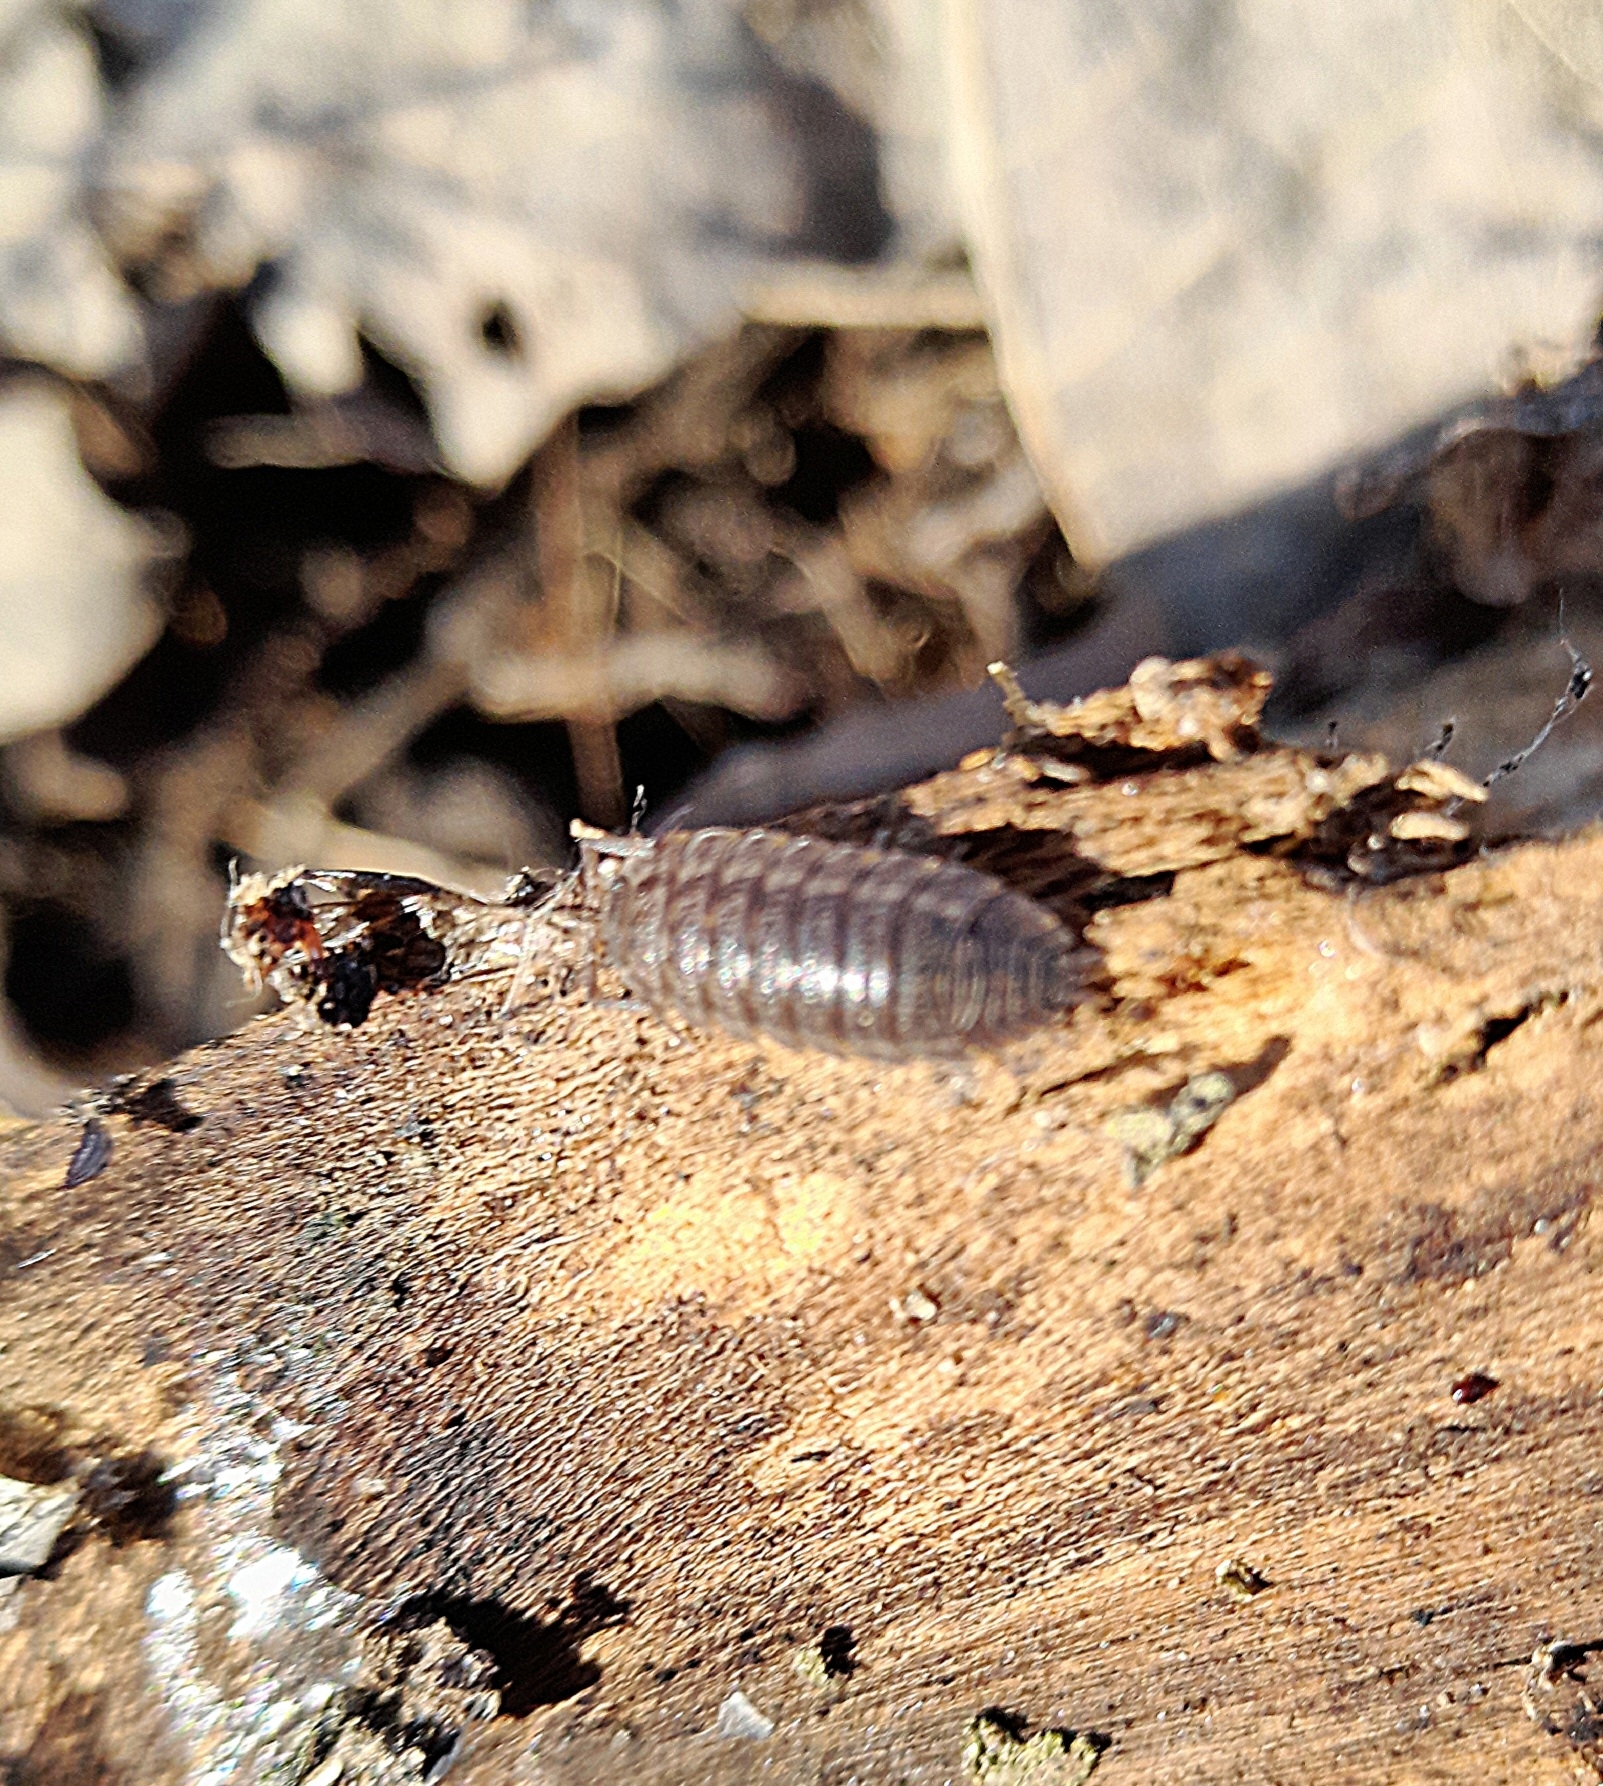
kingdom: Animalia
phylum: Arthropoda
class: Malacostraca
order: Isopoda
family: Trachelipodidae
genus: Trachelipus
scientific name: Trachelipus rathkii
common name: Isopod
